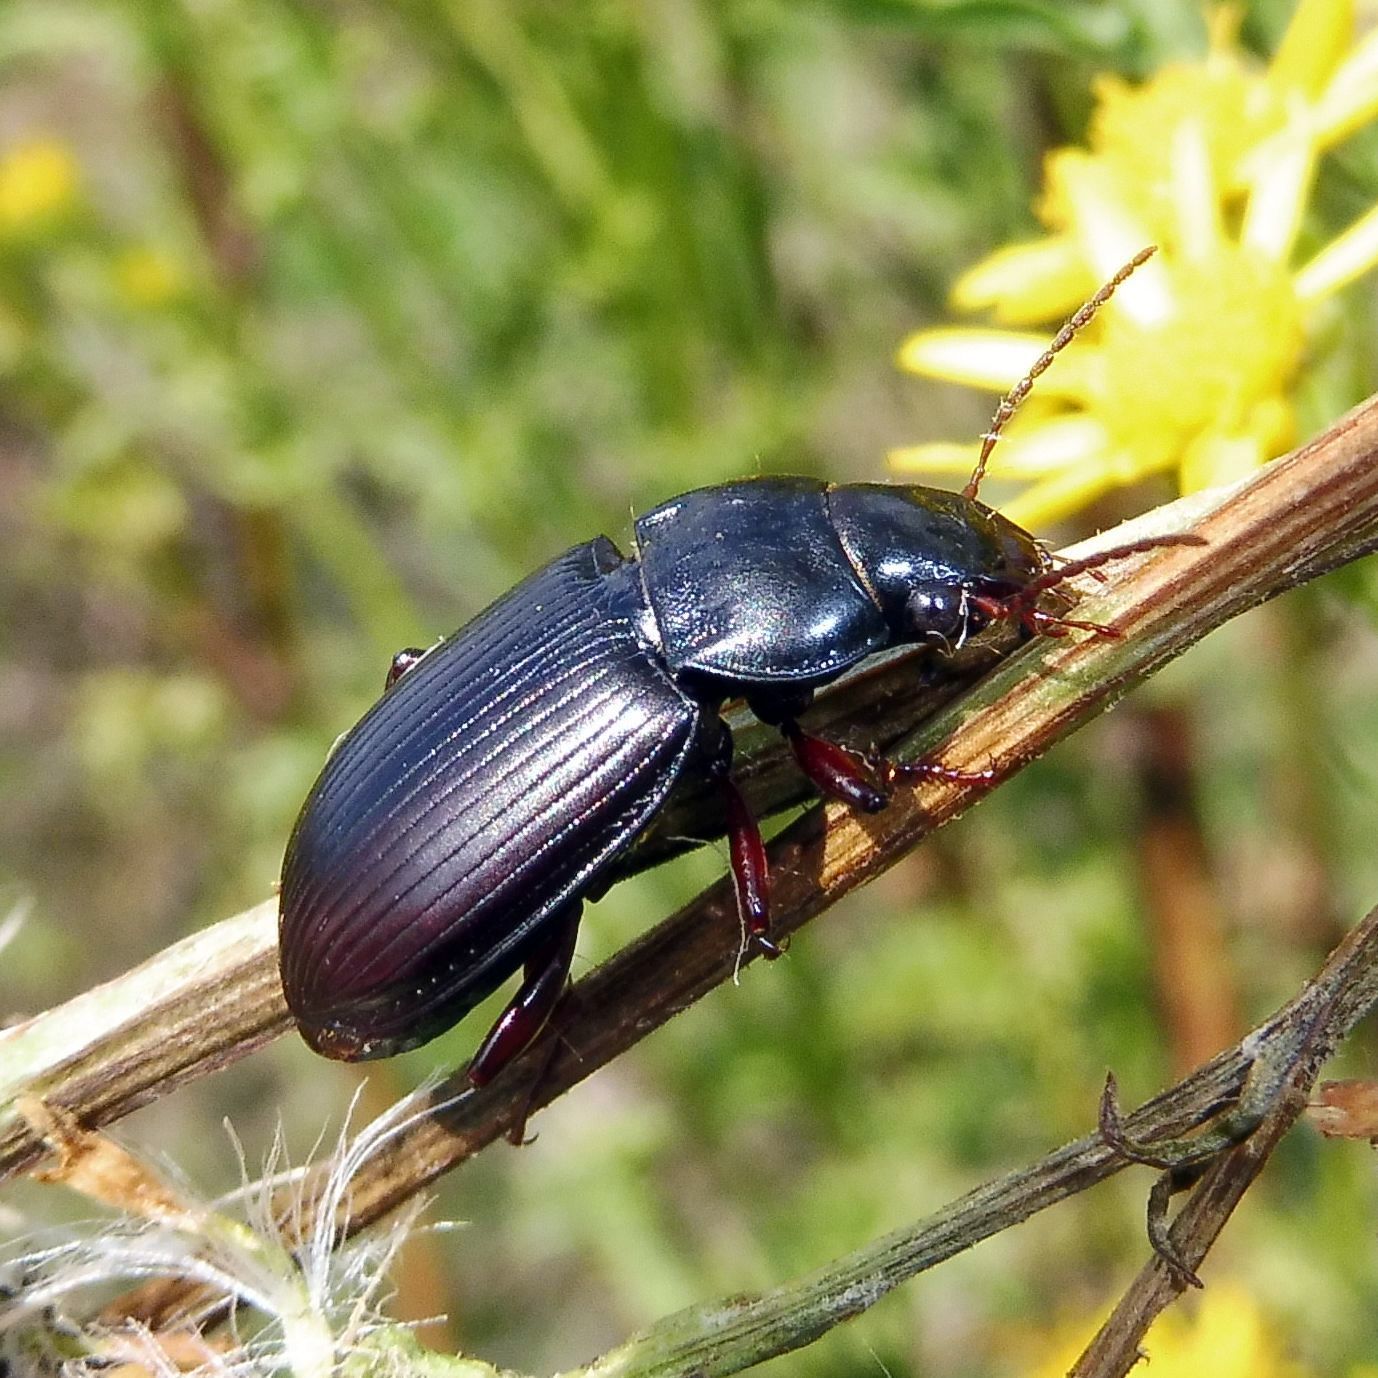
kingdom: Animalia
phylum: Arthropoda
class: Insecta
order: Coleoptera
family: Carabidae
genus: Amara
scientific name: Amara aulica
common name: Princely harp ground beetle
